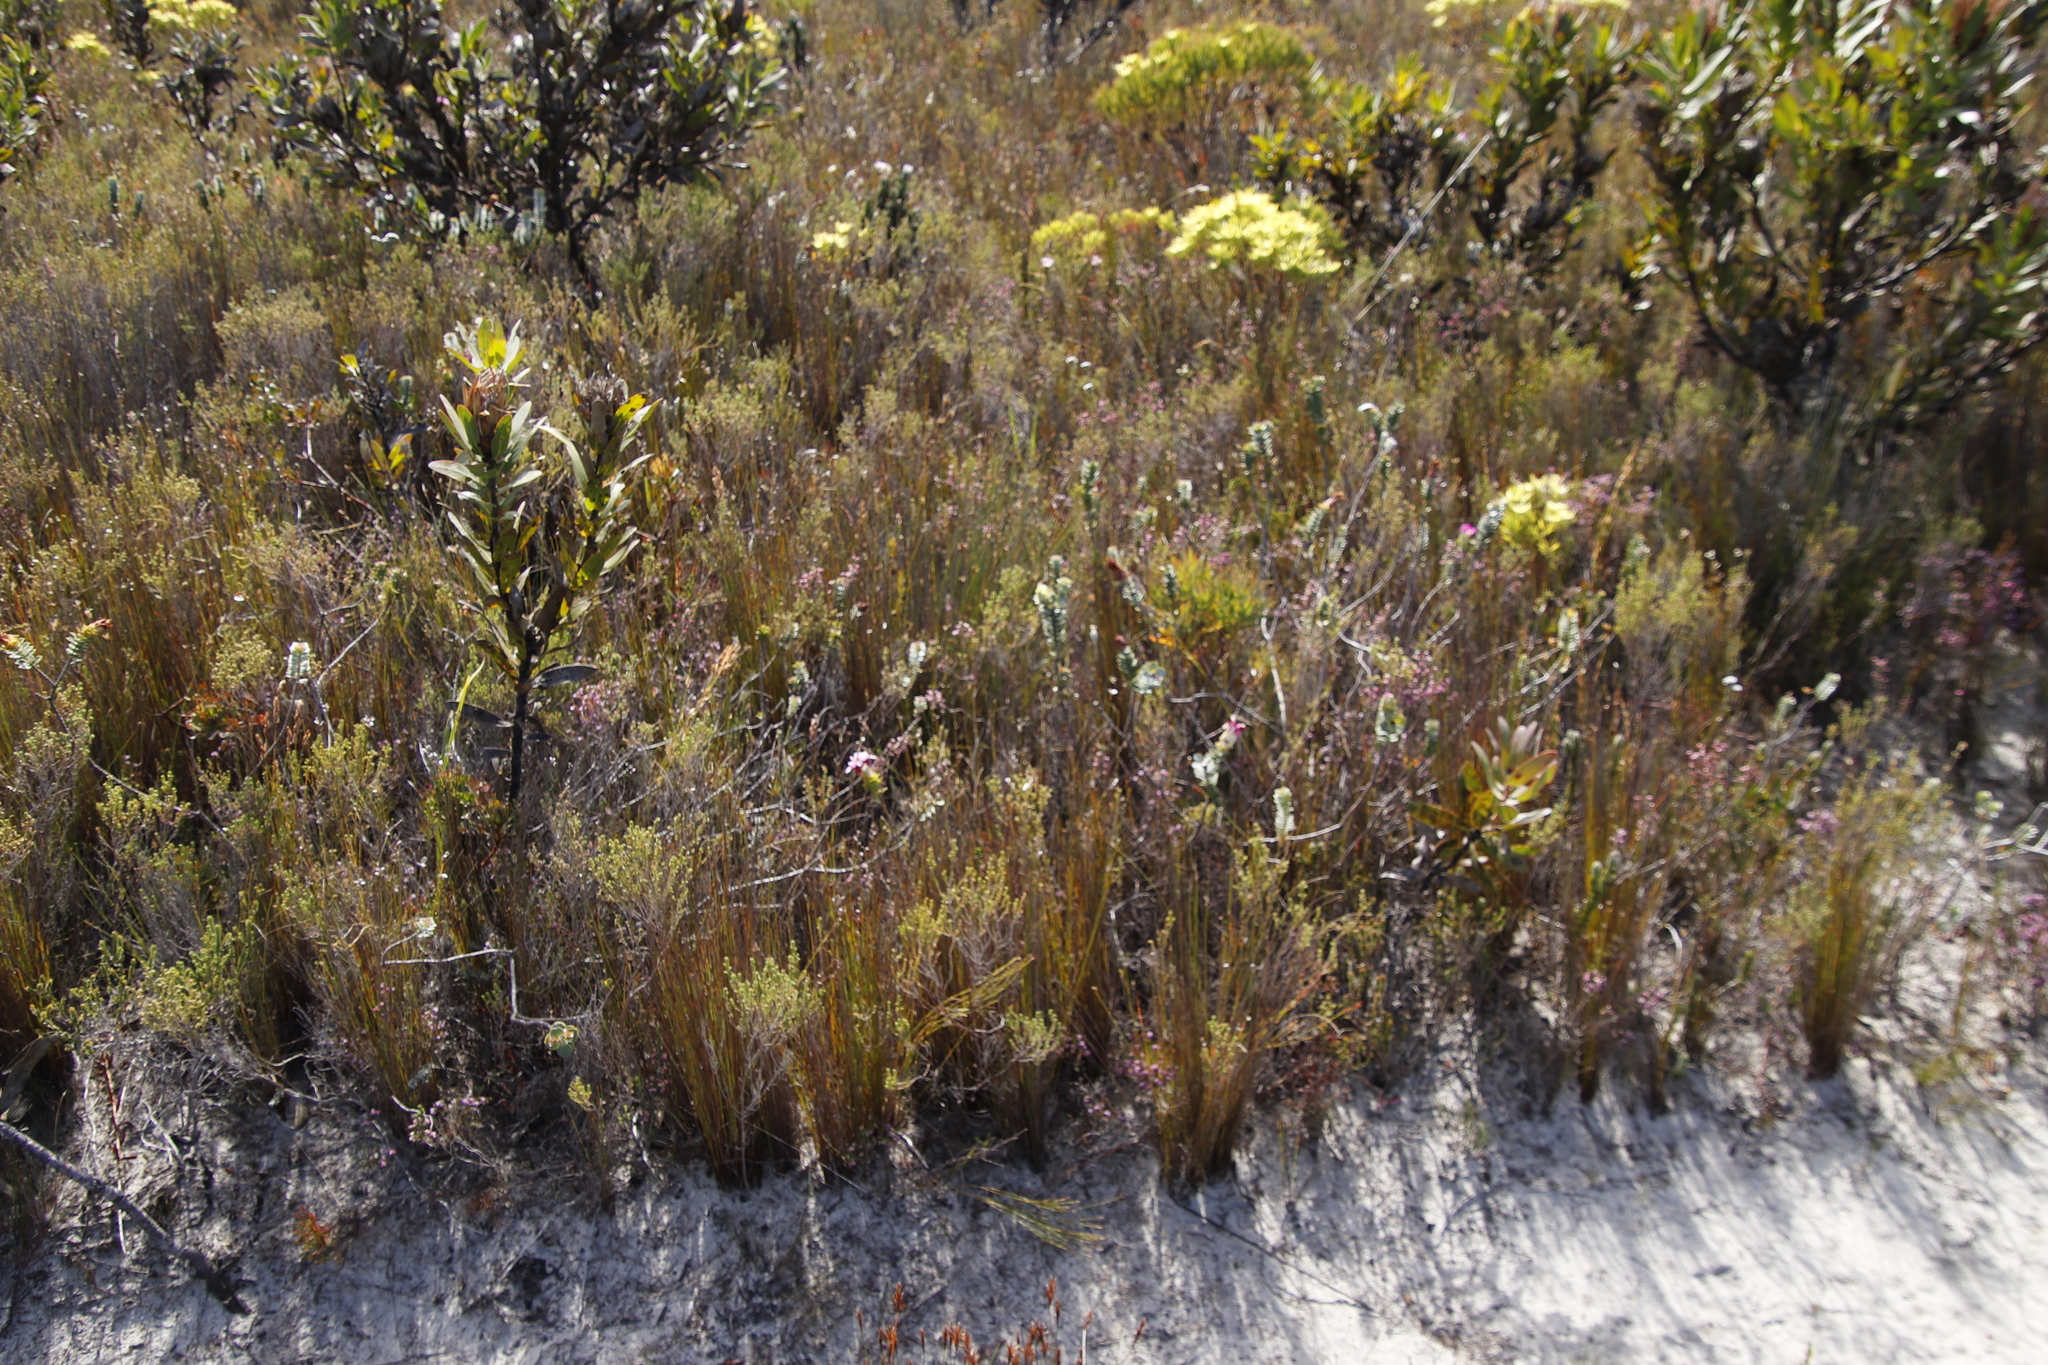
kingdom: Plantae
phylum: Tracheophyta
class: Magnoliopsida
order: Myrtales
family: Penaeaceae
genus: Saltera
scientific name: Saltera sarcocolla
